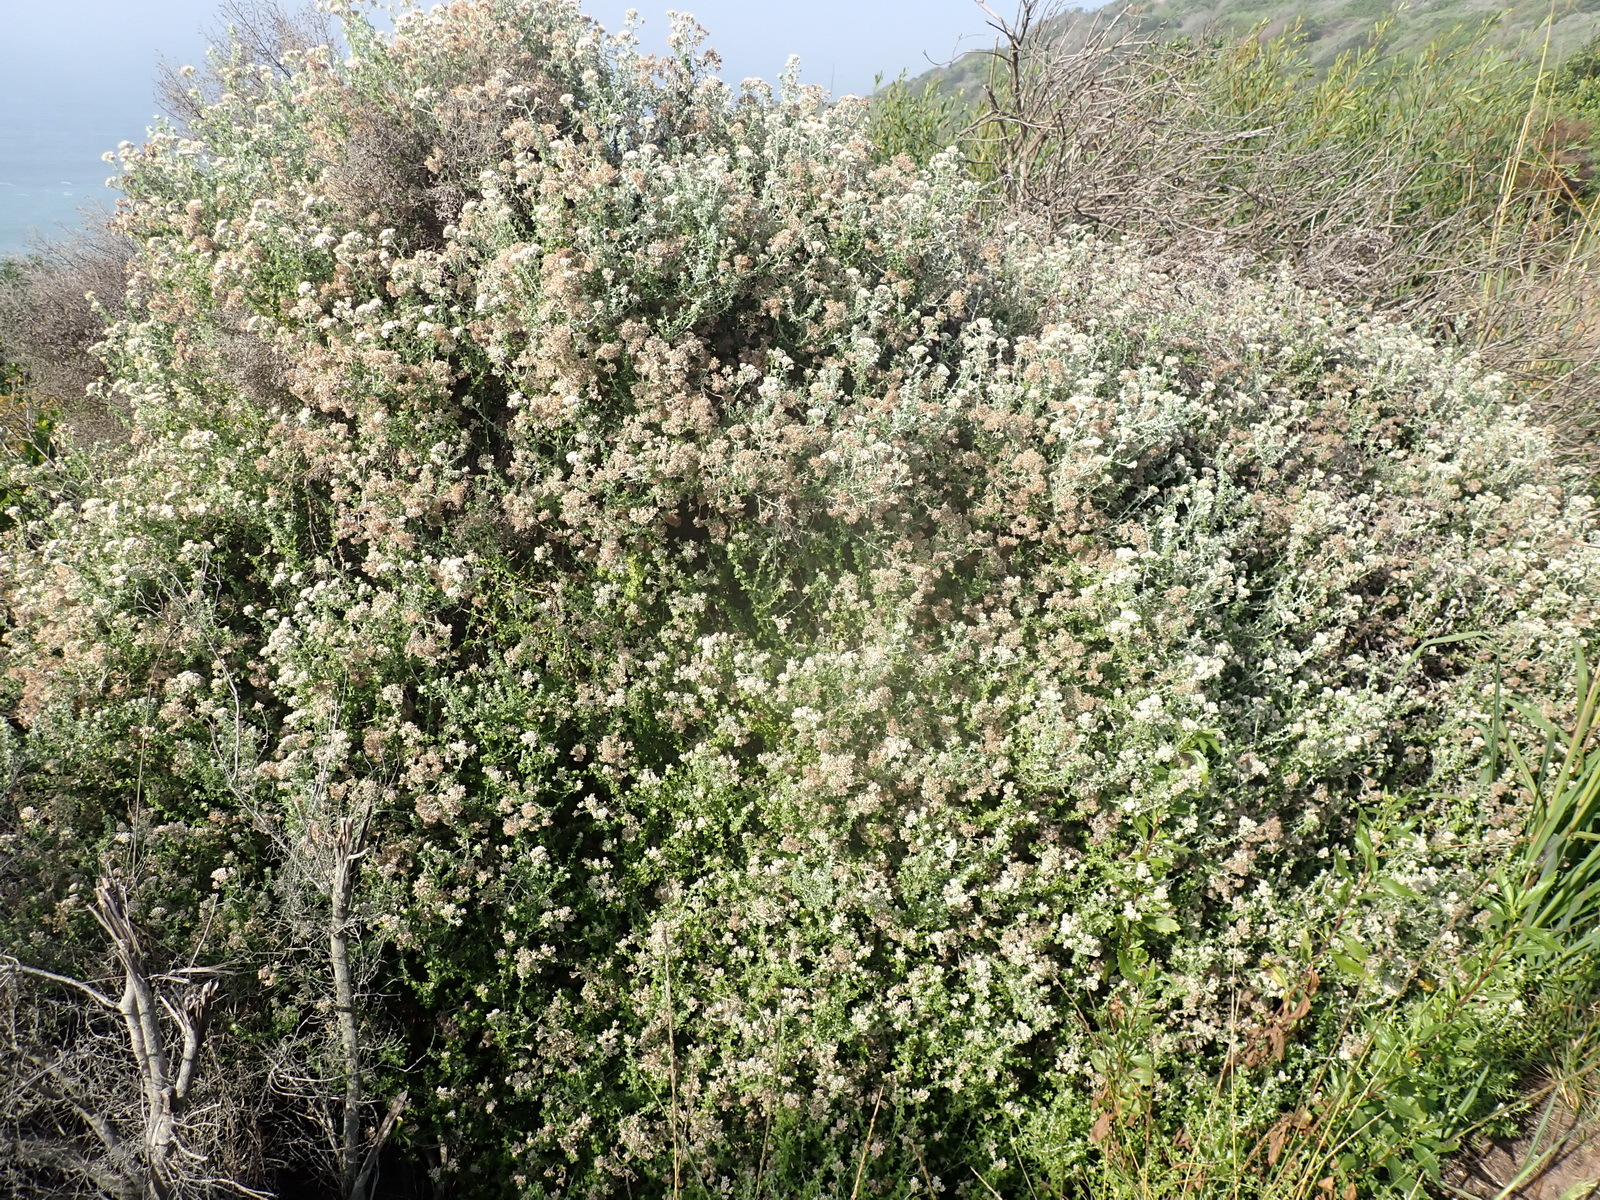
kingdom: Plantae
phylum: Tracheophyta
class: Magnoliopsida
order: Asterales
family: Asteraceae
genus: Plecostachys
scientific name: Plecostachys polifolia
